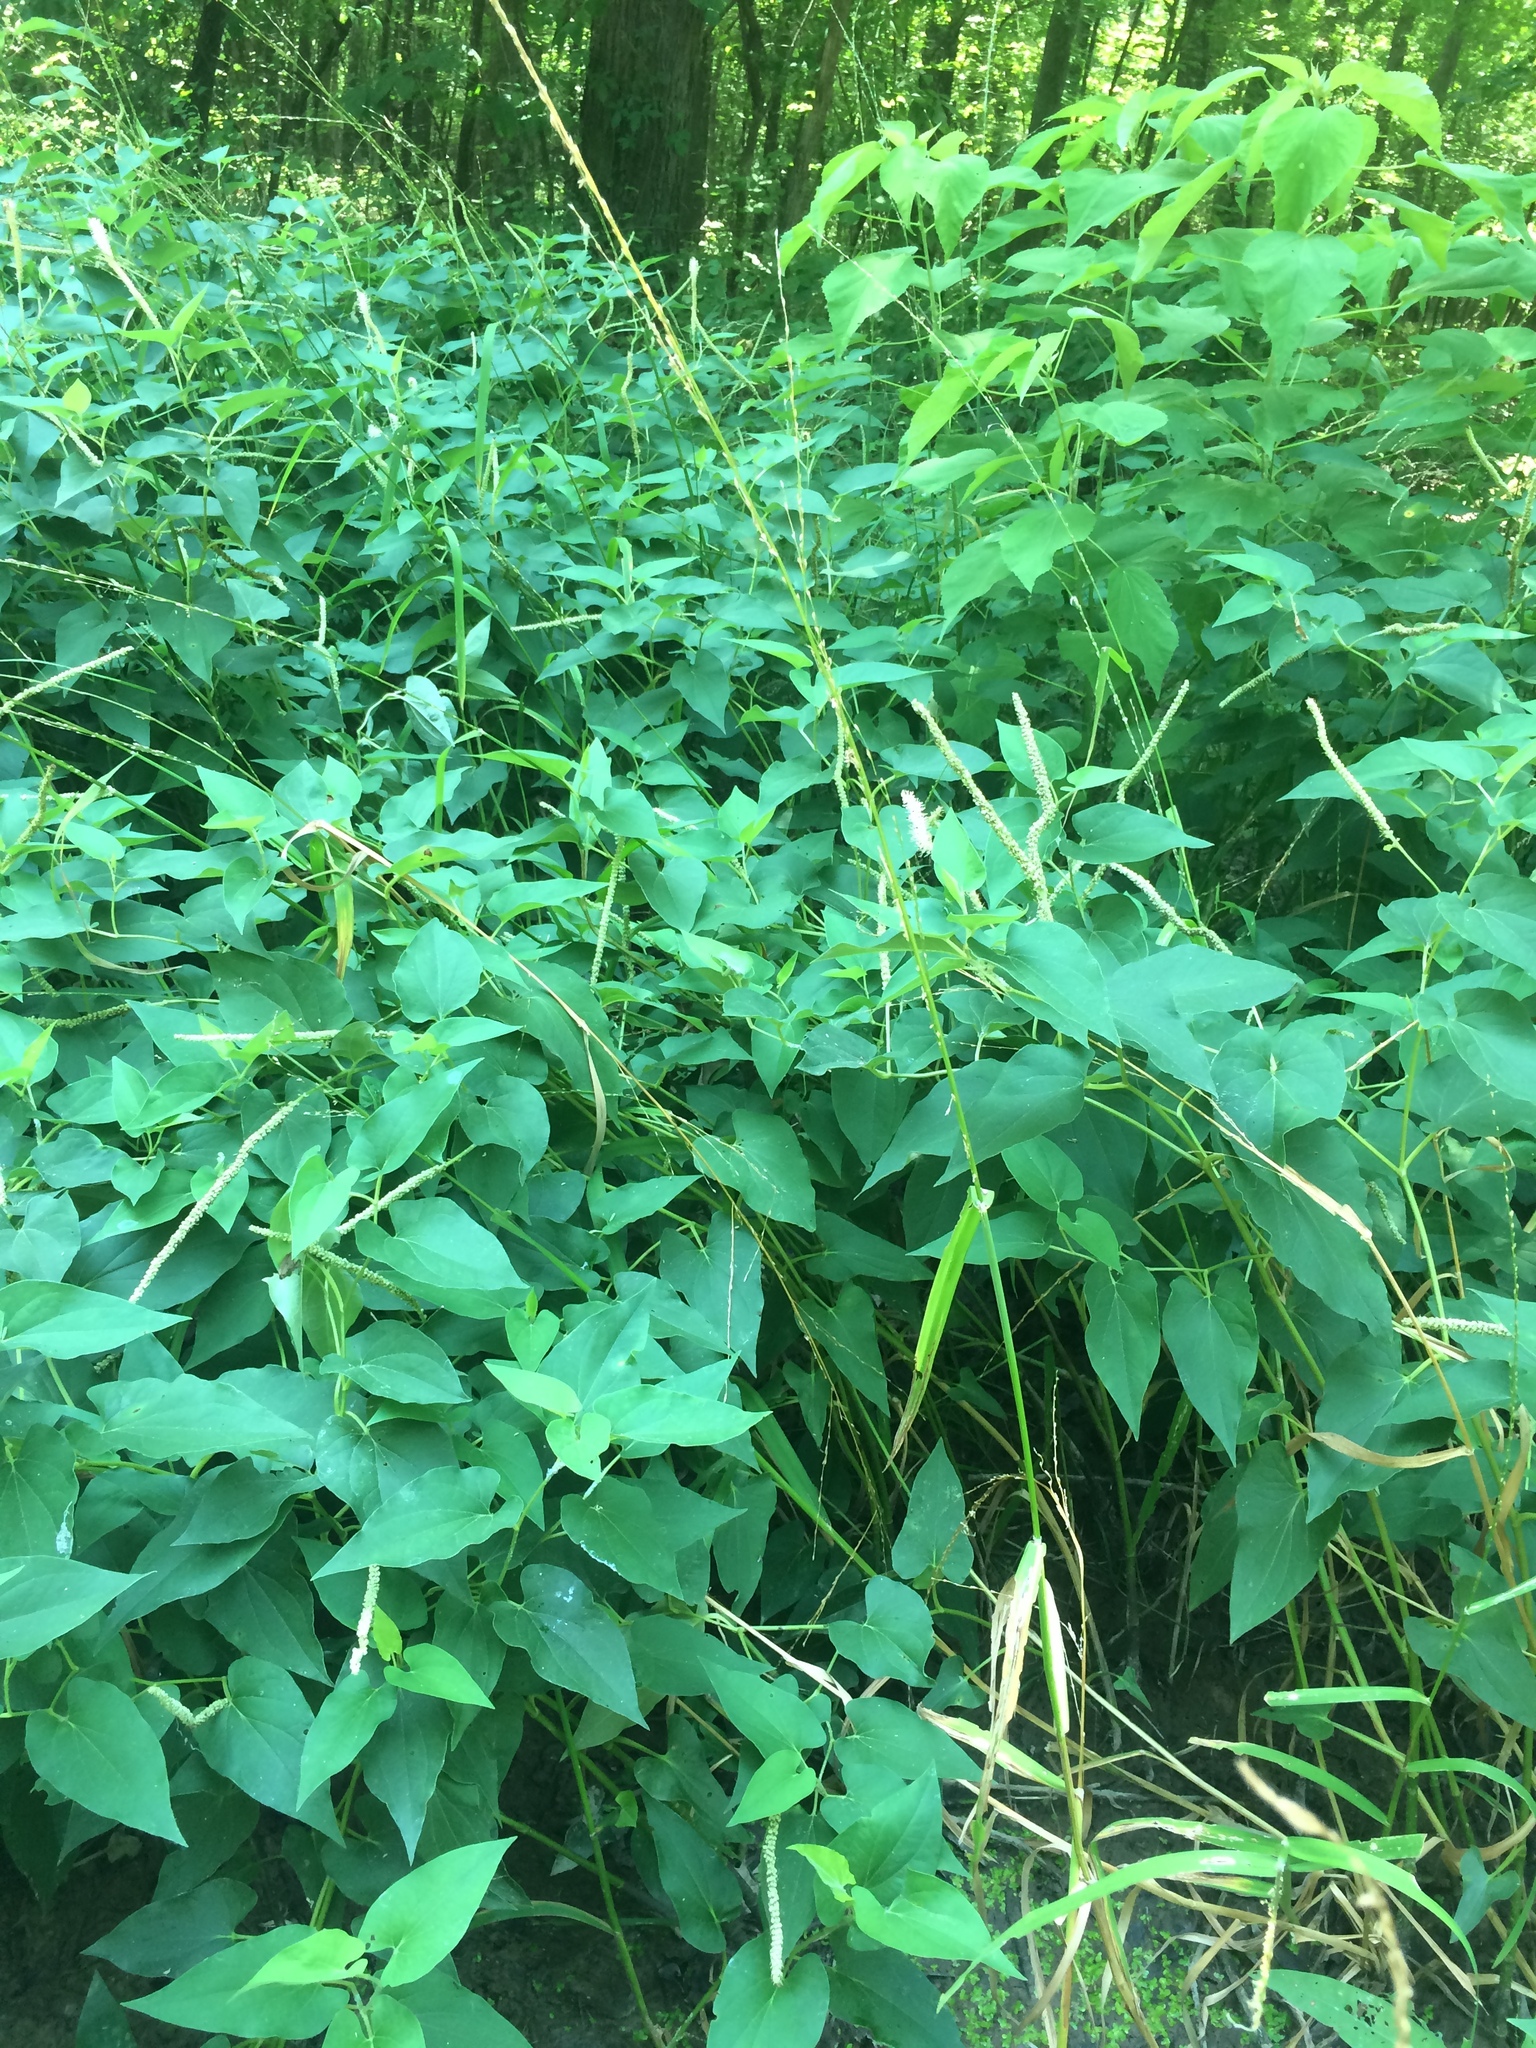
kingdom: Plantae
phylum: Tracheophyta
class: Magnoliopsida
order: Piperales
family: Saururaceae
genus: Saururus
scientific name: Saururus cernuus
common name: Lizard's-tail
